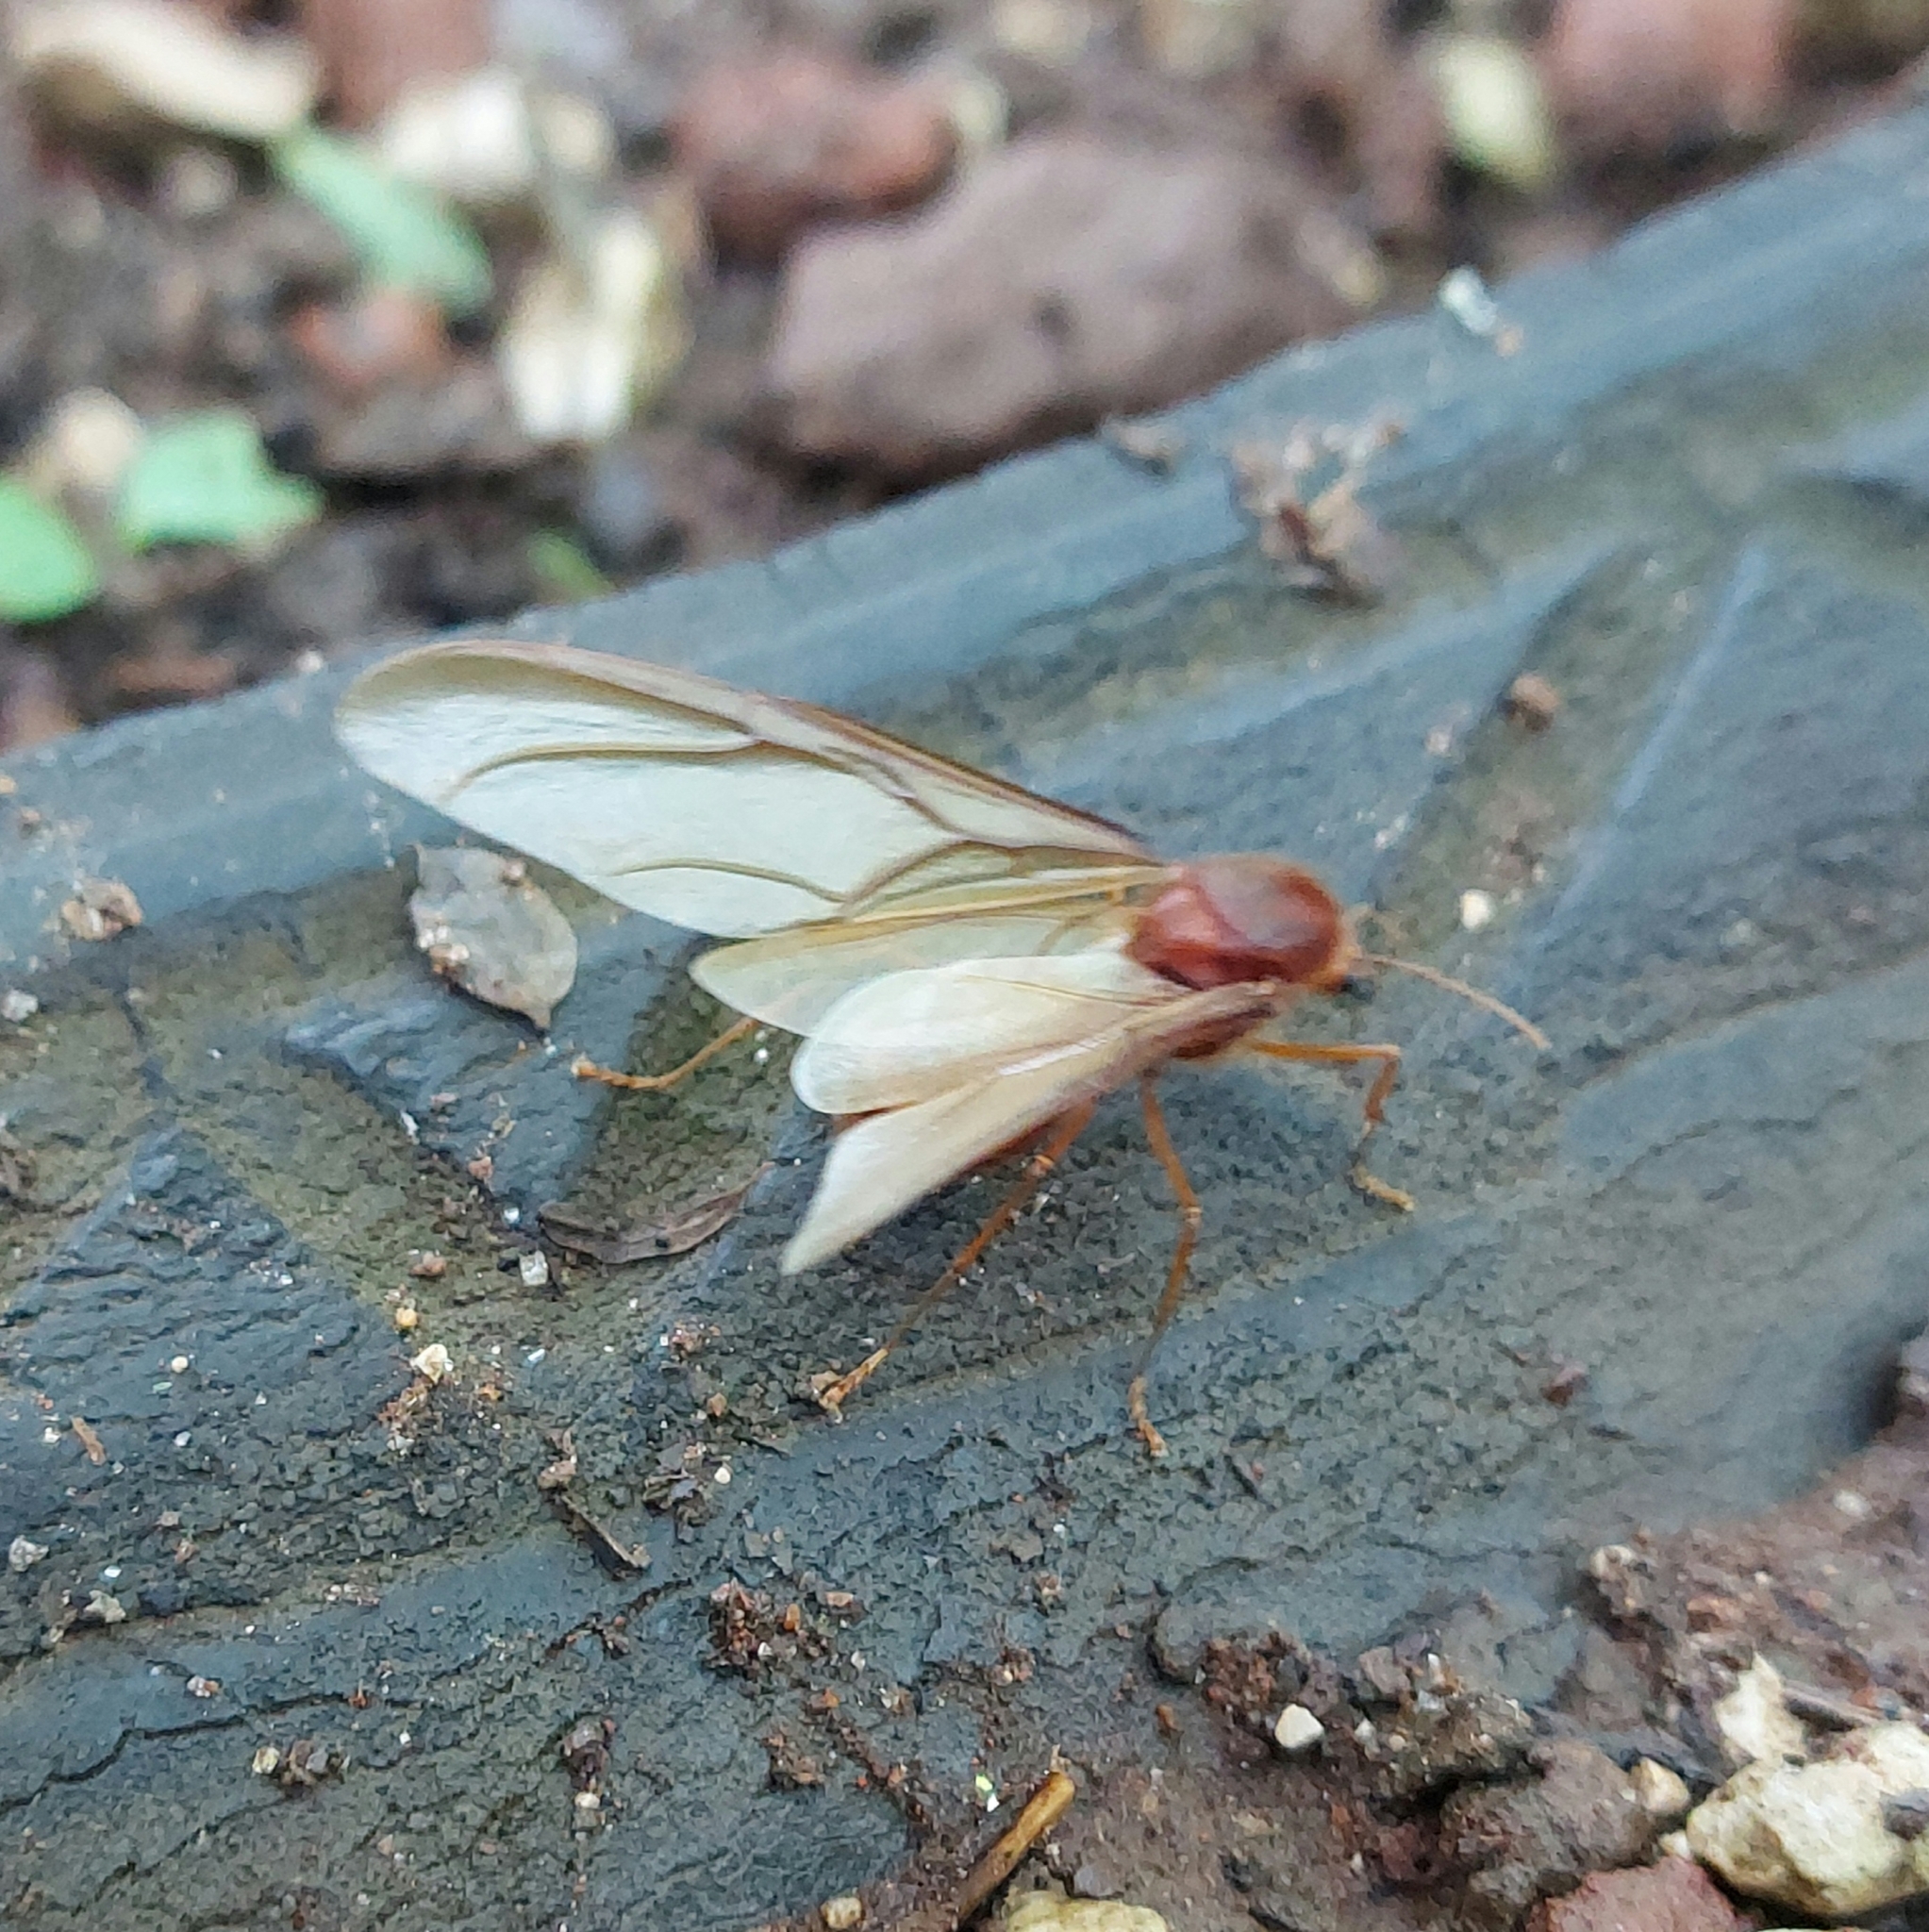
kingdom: Animalia
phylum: Arthropoda
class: Insecta
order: Hymenoptera
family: Formicidae
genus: Atta
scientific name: Atta mexicana
